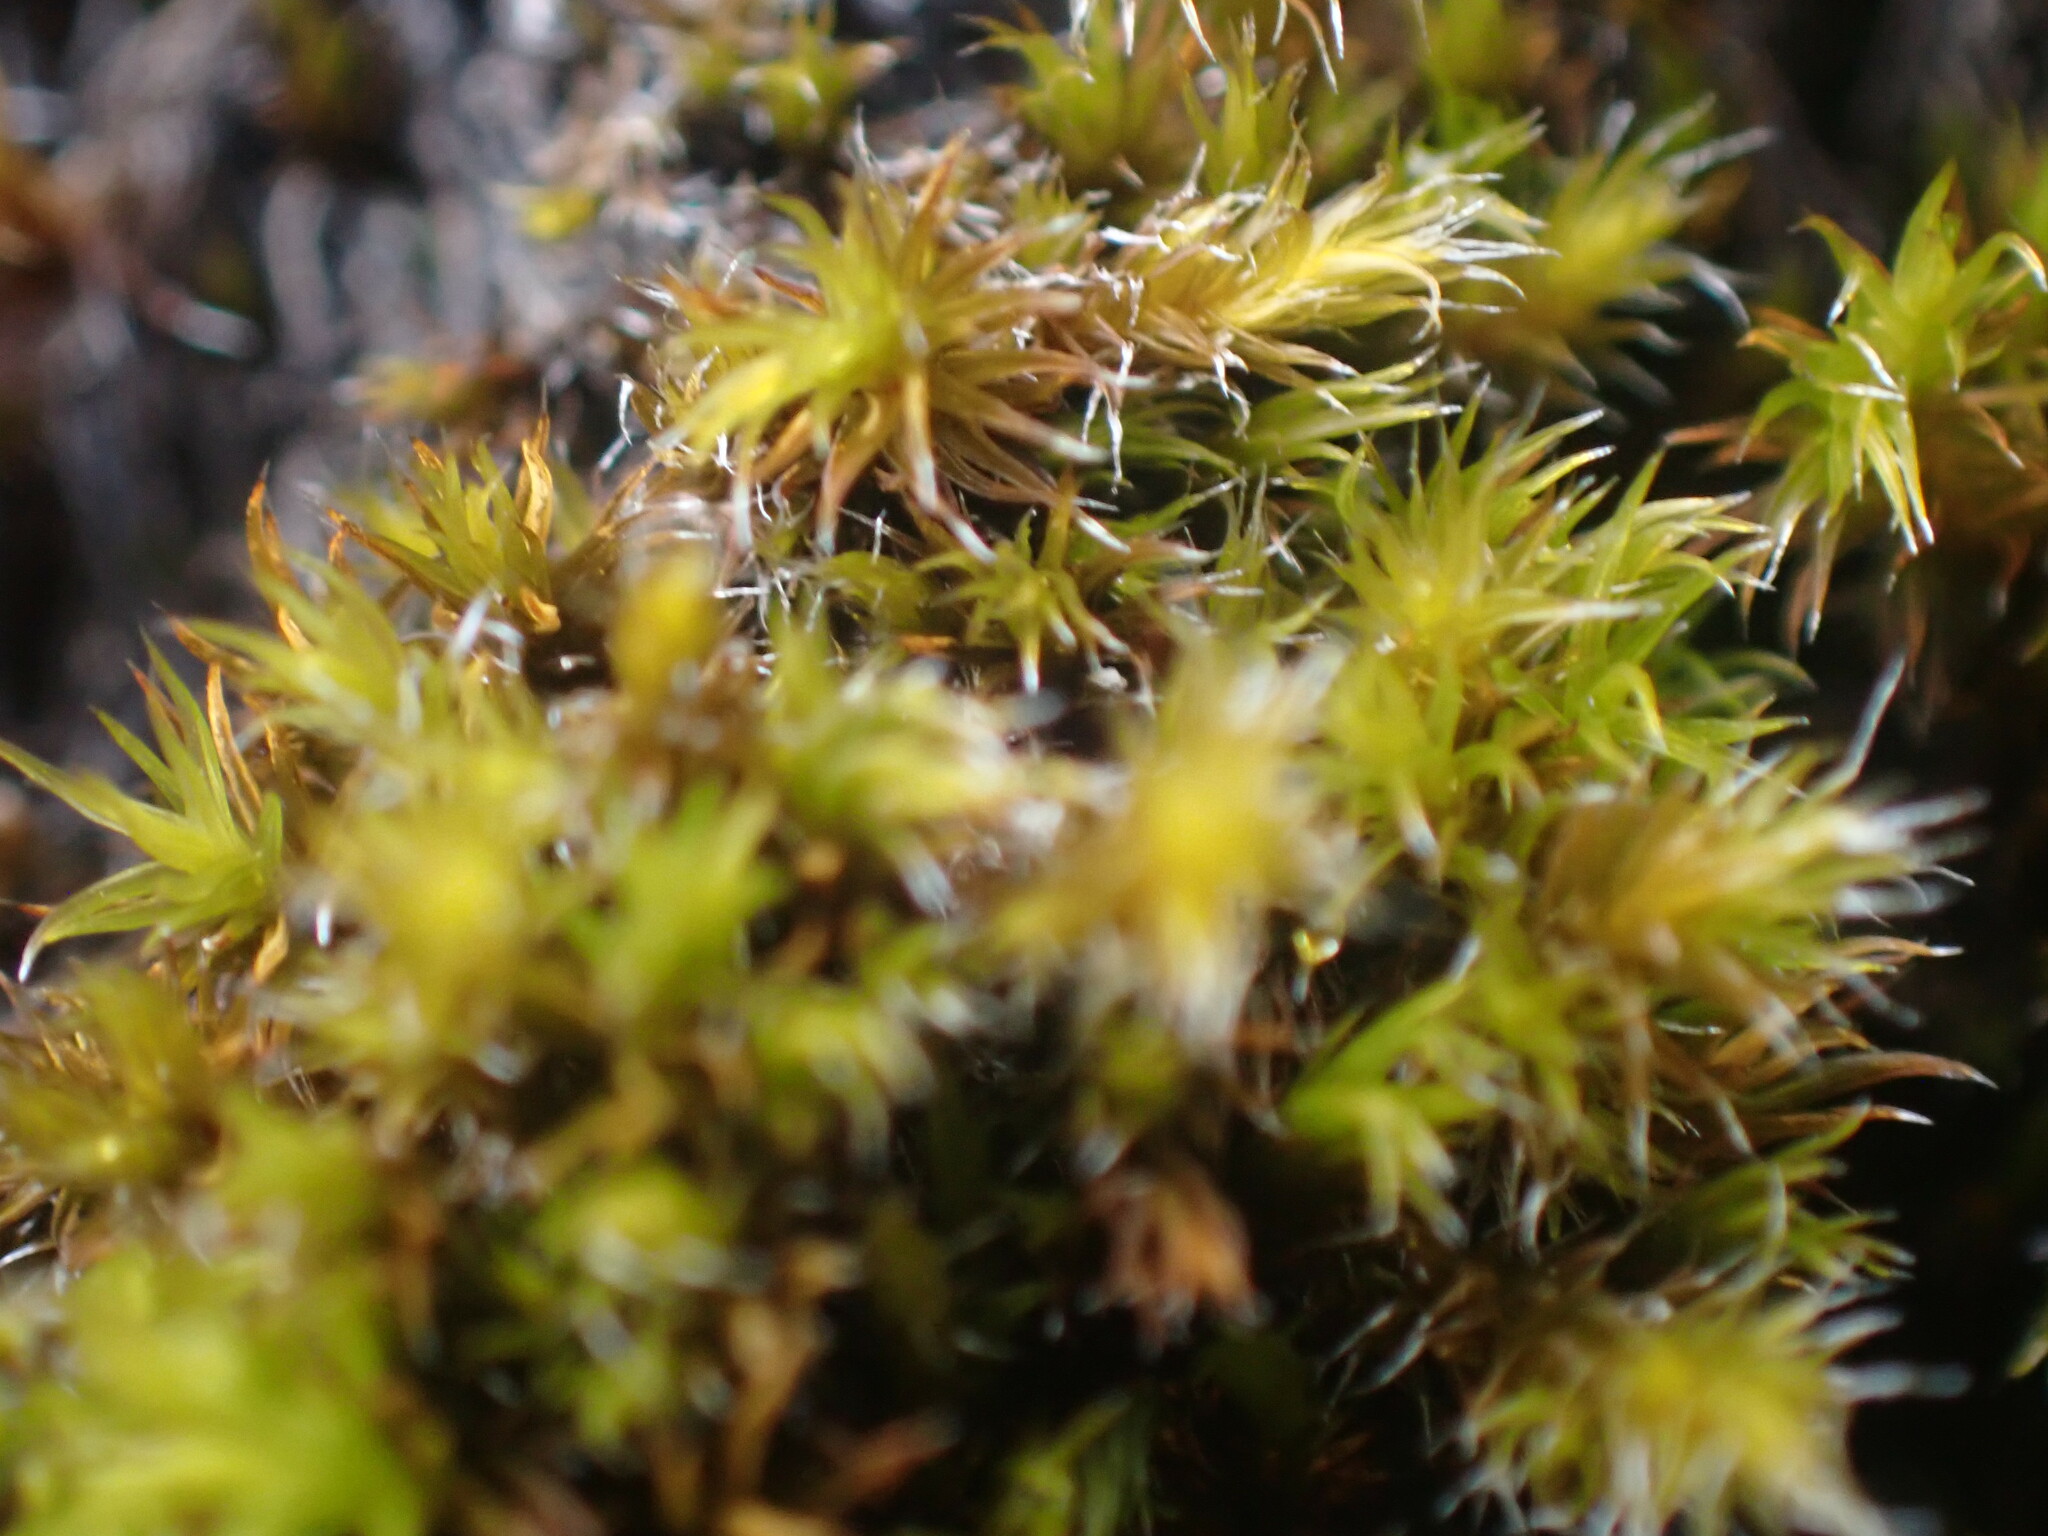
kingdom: Plantae
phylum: Bryophyta
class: Bryopsida
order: Grimmiales
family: Grimmiaceae
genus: Bucklandiella
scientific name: Bucklandiella heterosticha
